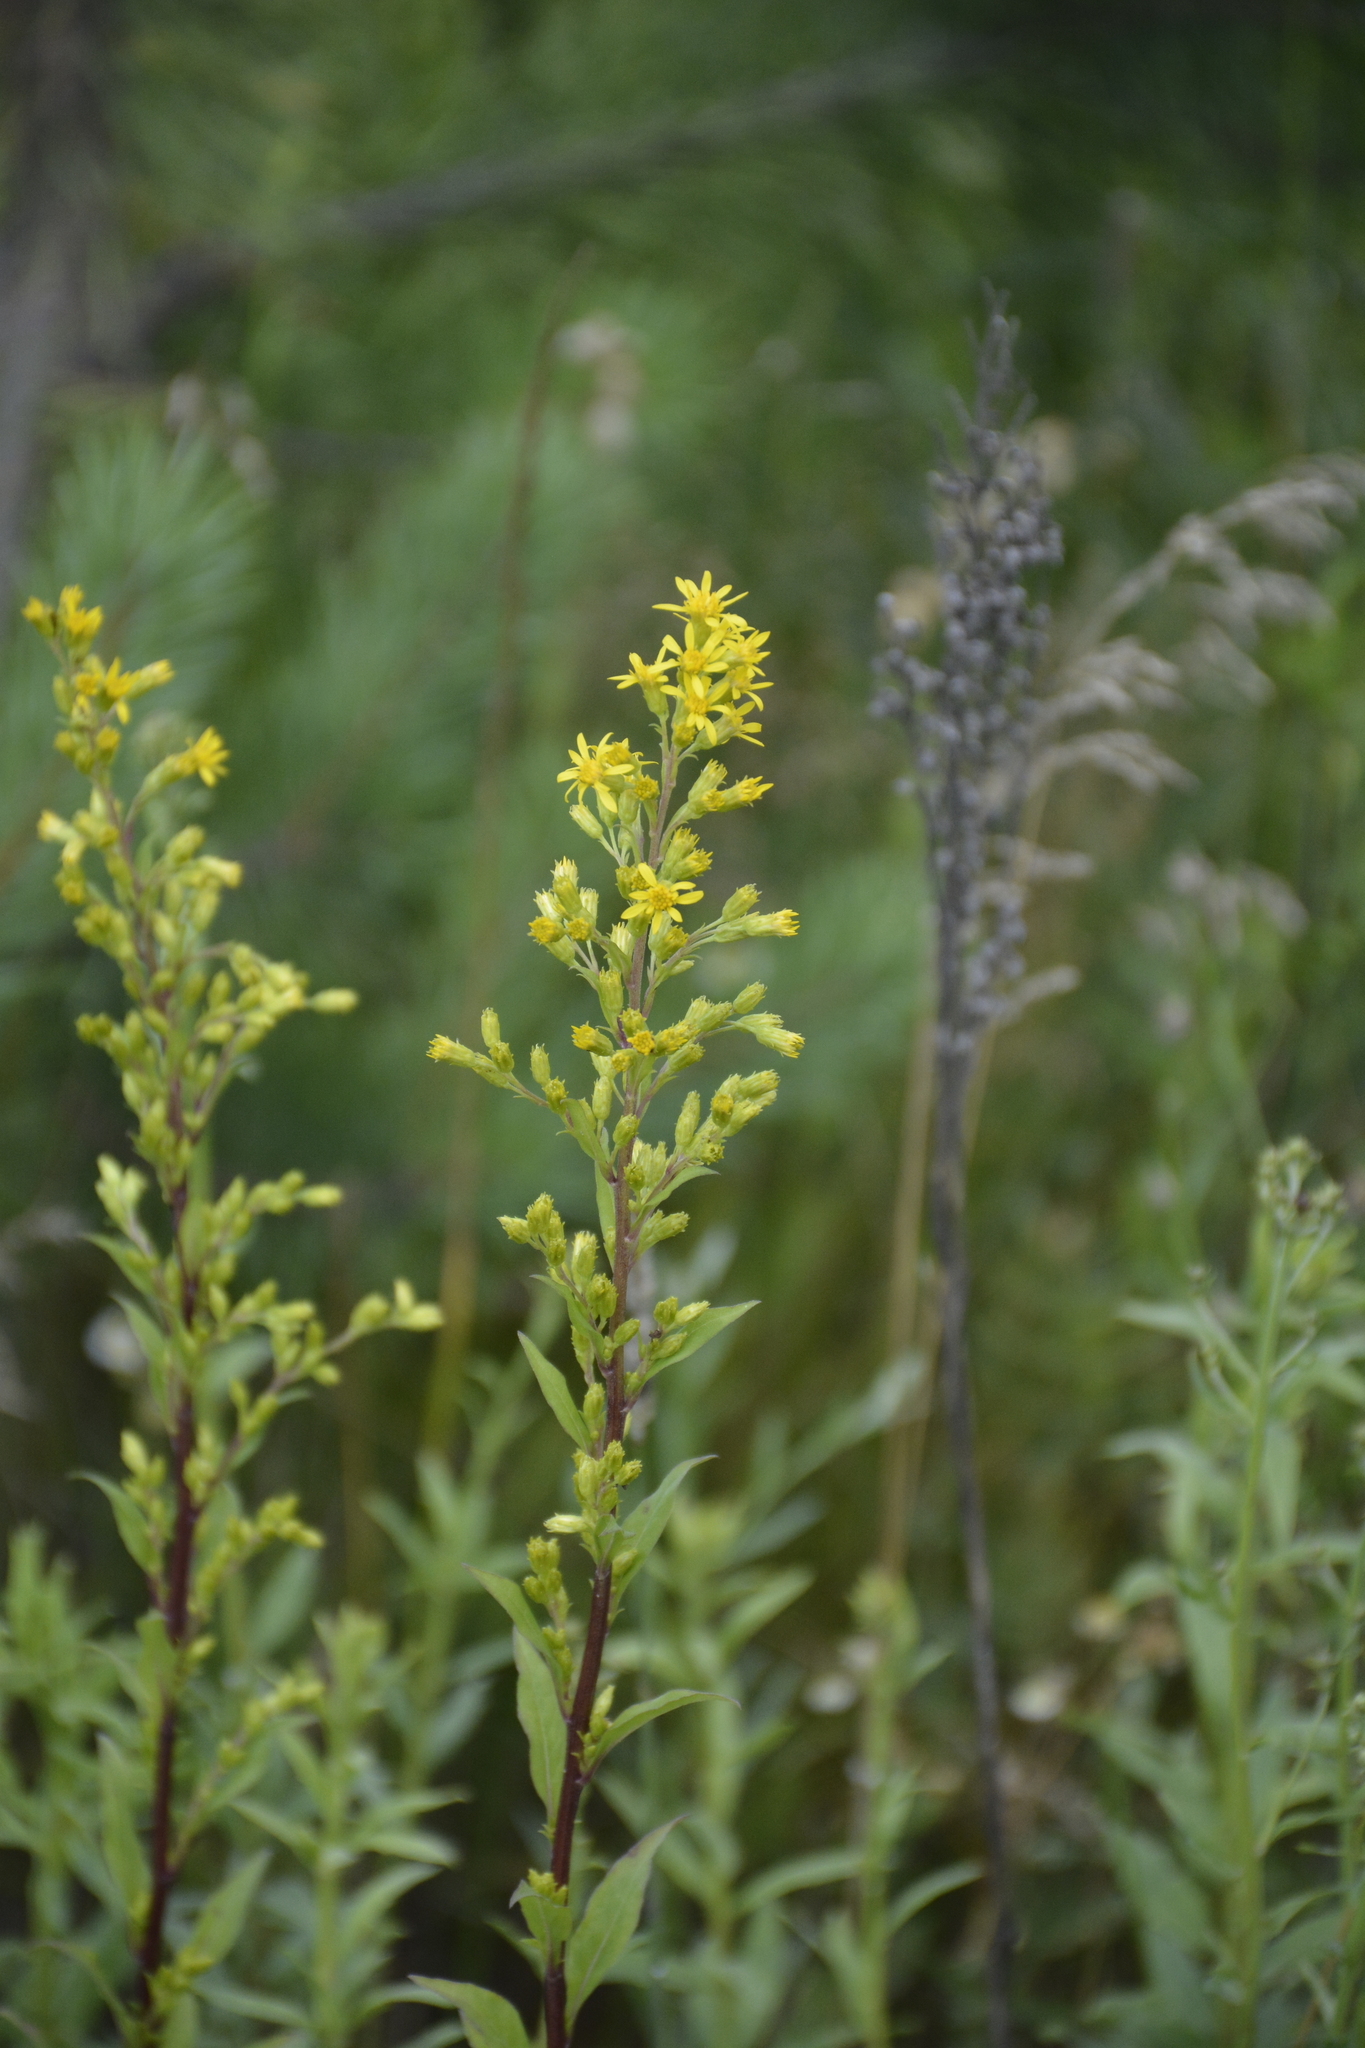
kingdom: Plantae
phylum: Tracheophyta
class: Magnoliopsida
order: Asterales
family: Asteraceae
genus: Solidago
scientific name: Solidago virgaurea
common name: Goldenrod
